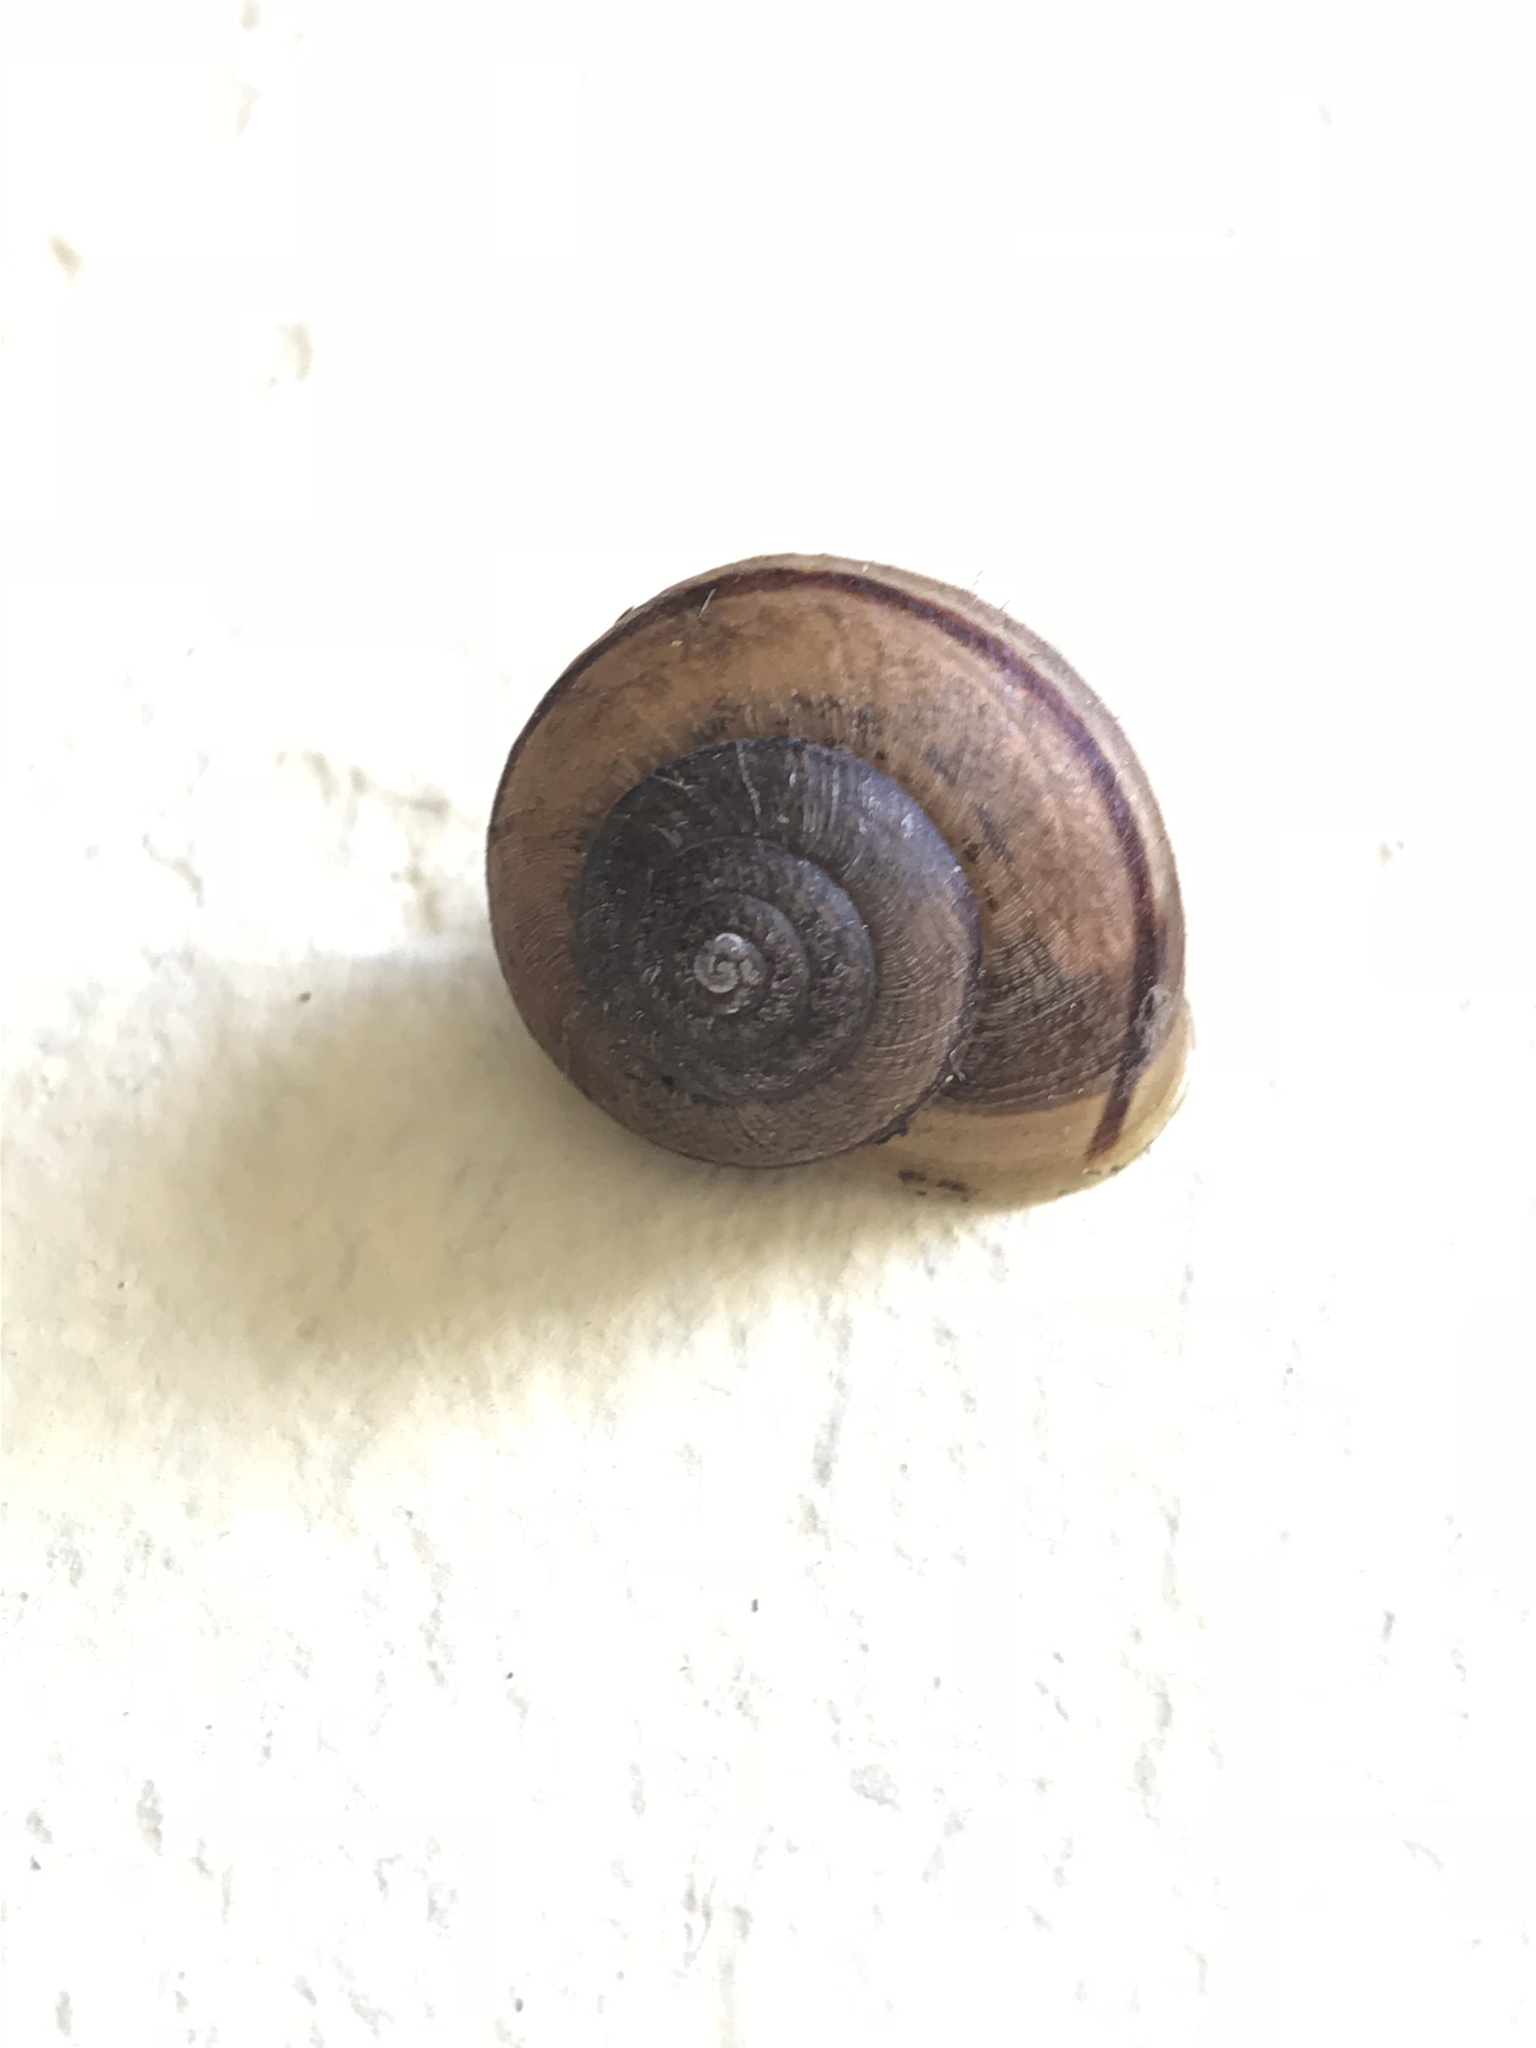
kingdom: Animalia
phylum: Mollusca
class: Gastropoda
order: Stylommatophora
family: Xanthonychidae
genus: Helminthoglypta
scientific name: Helminthoglypta nickliniana
